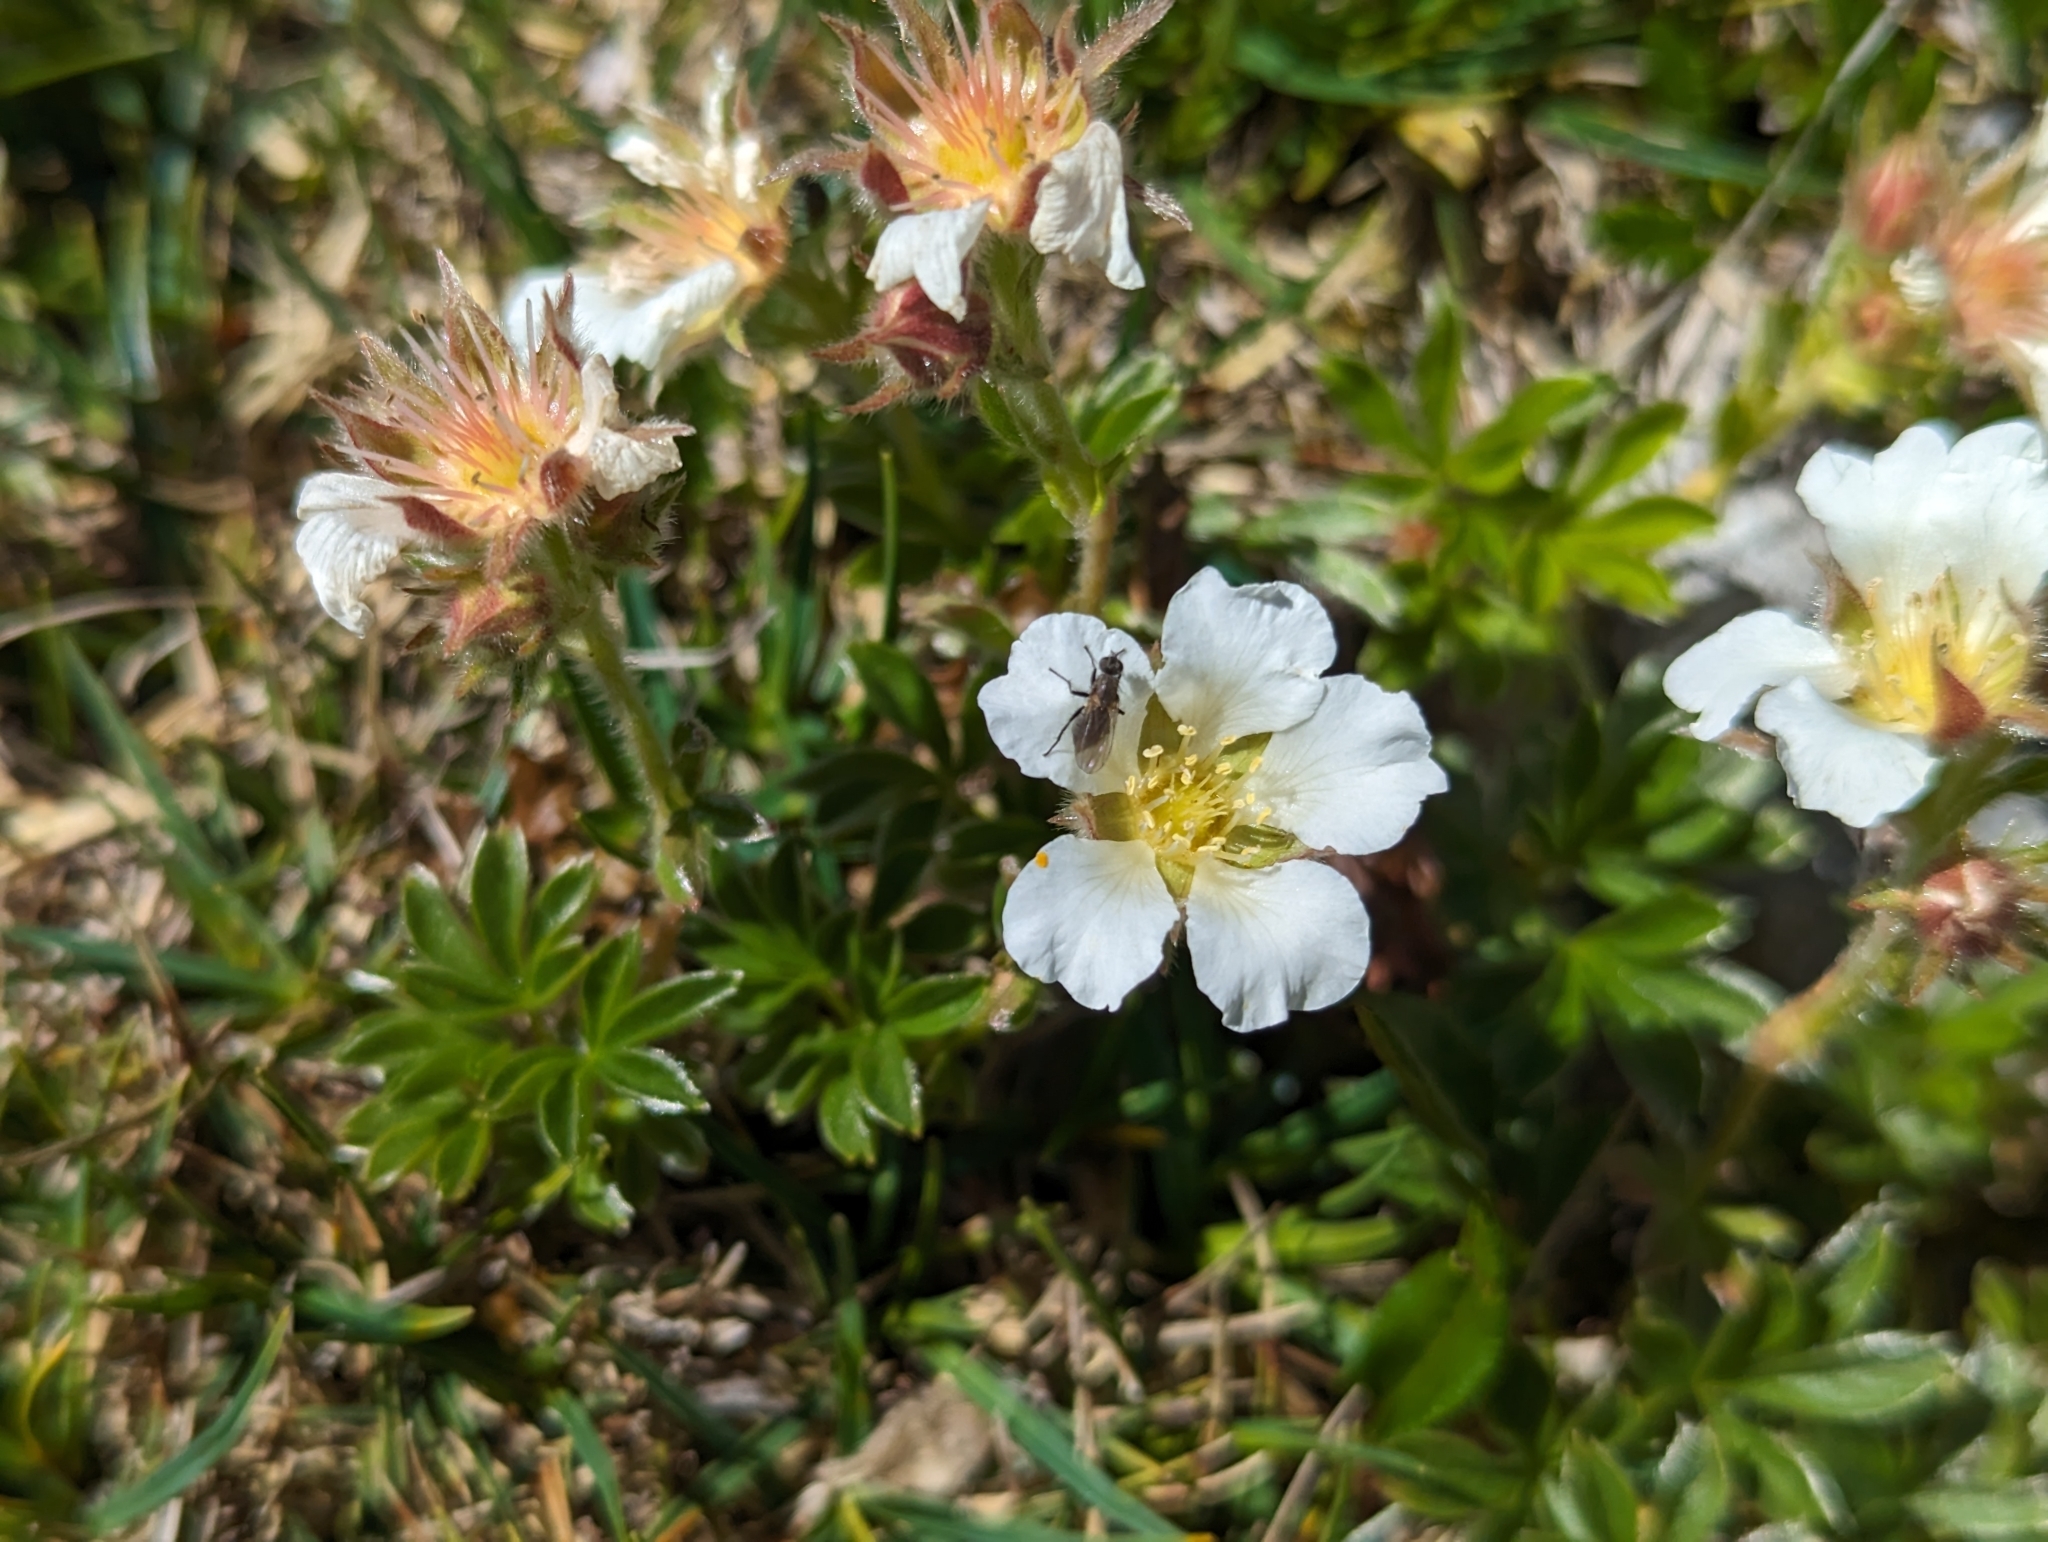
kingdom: Plantae
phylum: Tracheophyta
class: Magnoliopsida
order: Rosales
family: Rosaceae
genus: Potentilla
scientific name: Potentilla clusiana
